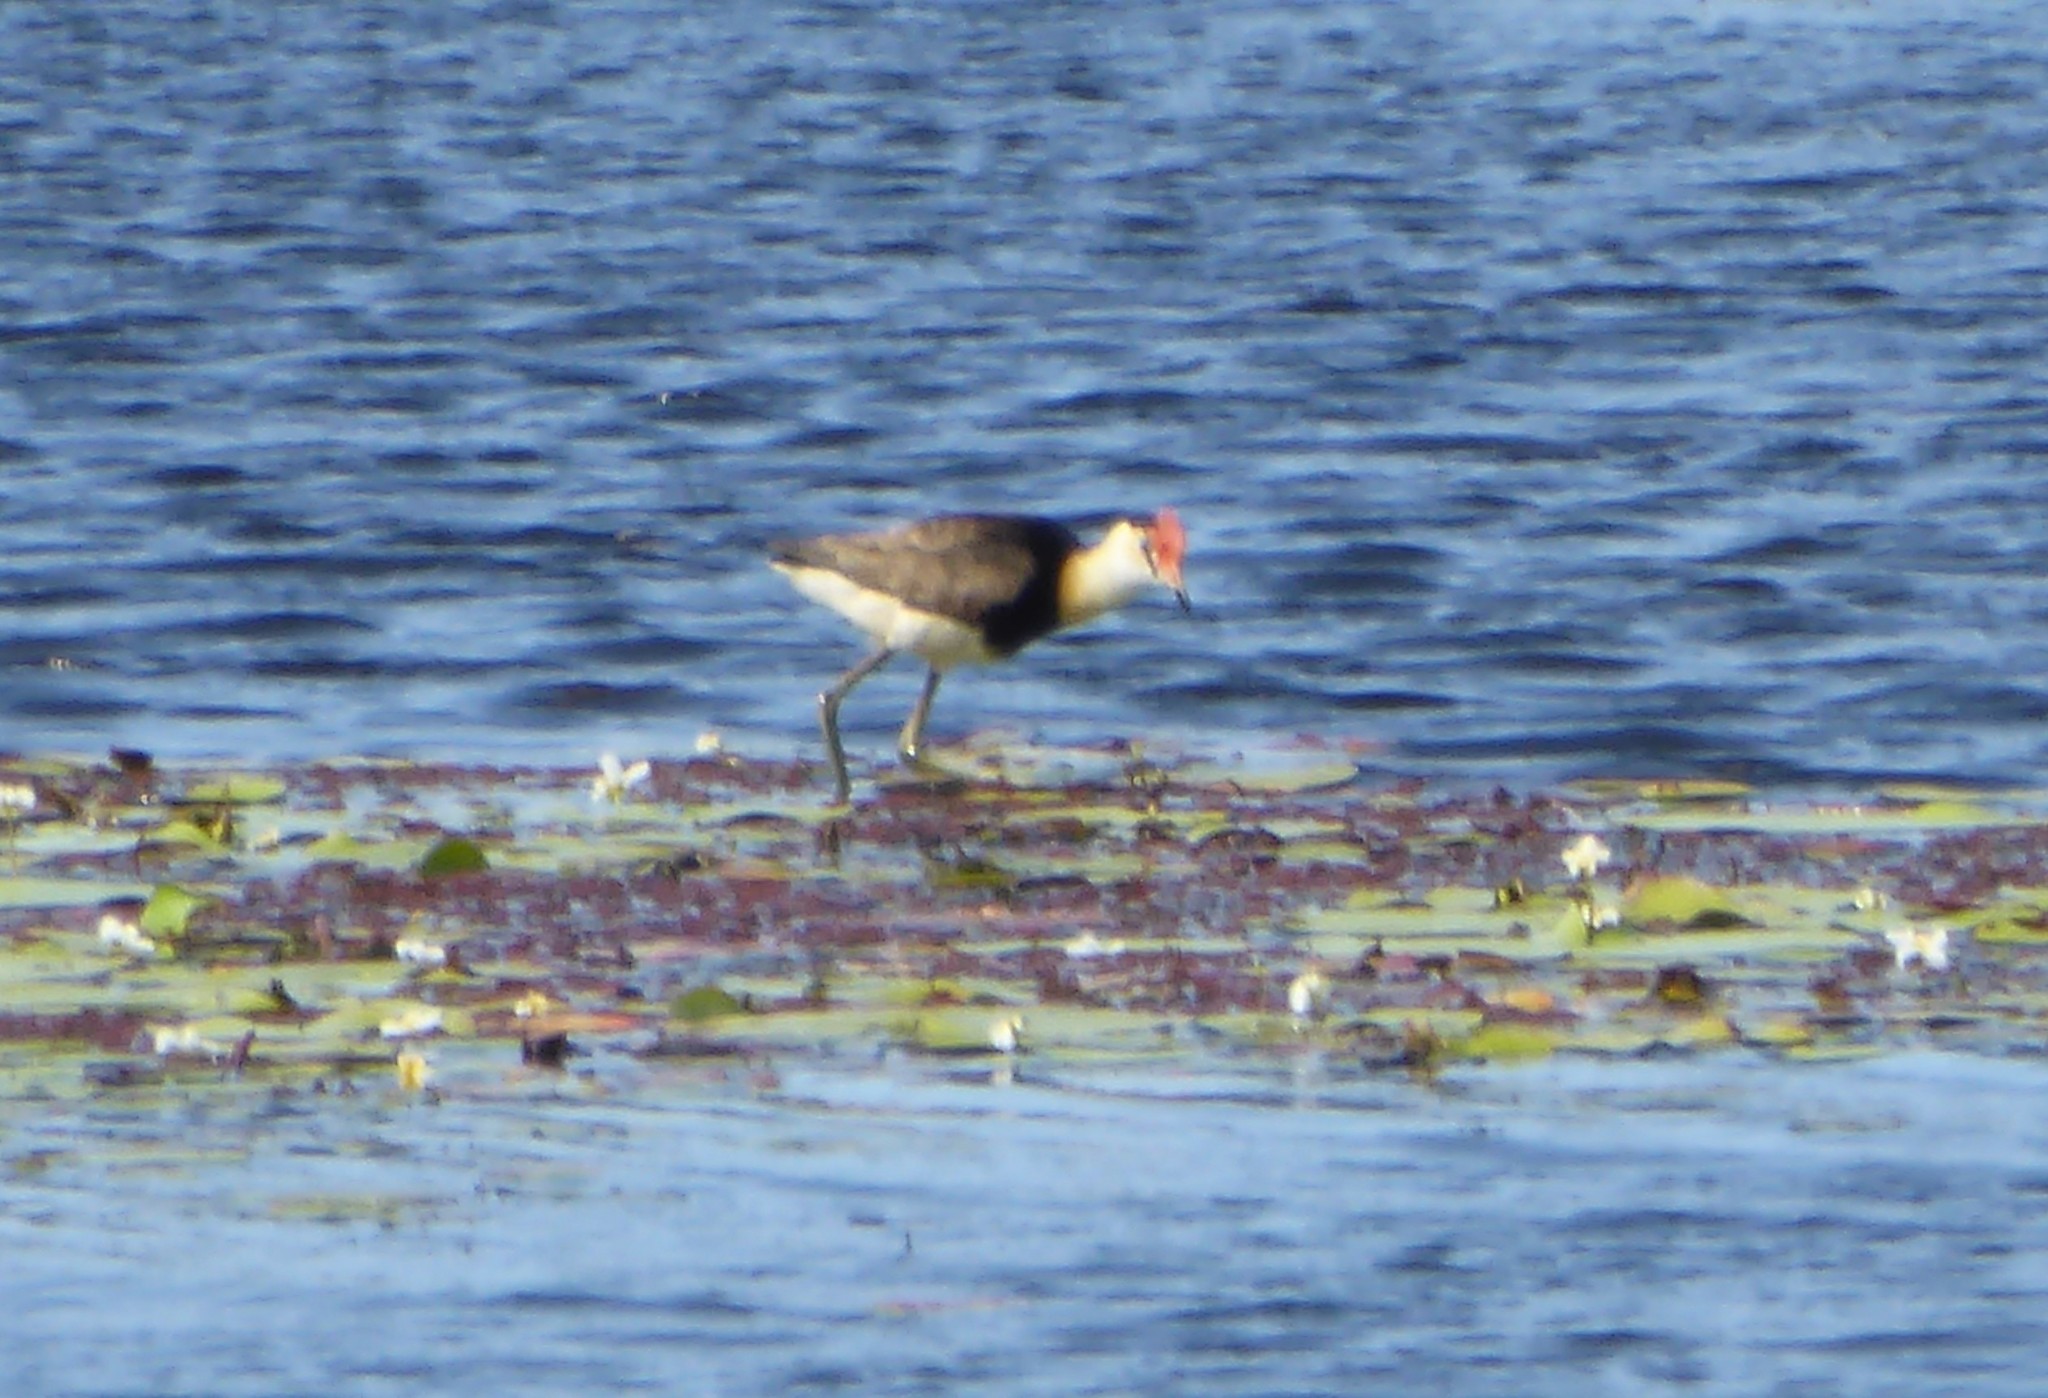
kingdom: Animalia
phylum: Chordata
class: Aves
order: Charadriiformes
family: Jacanidae
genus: Irediparra
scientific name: Irediparra gallinacea
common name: Comb-crested jacana
